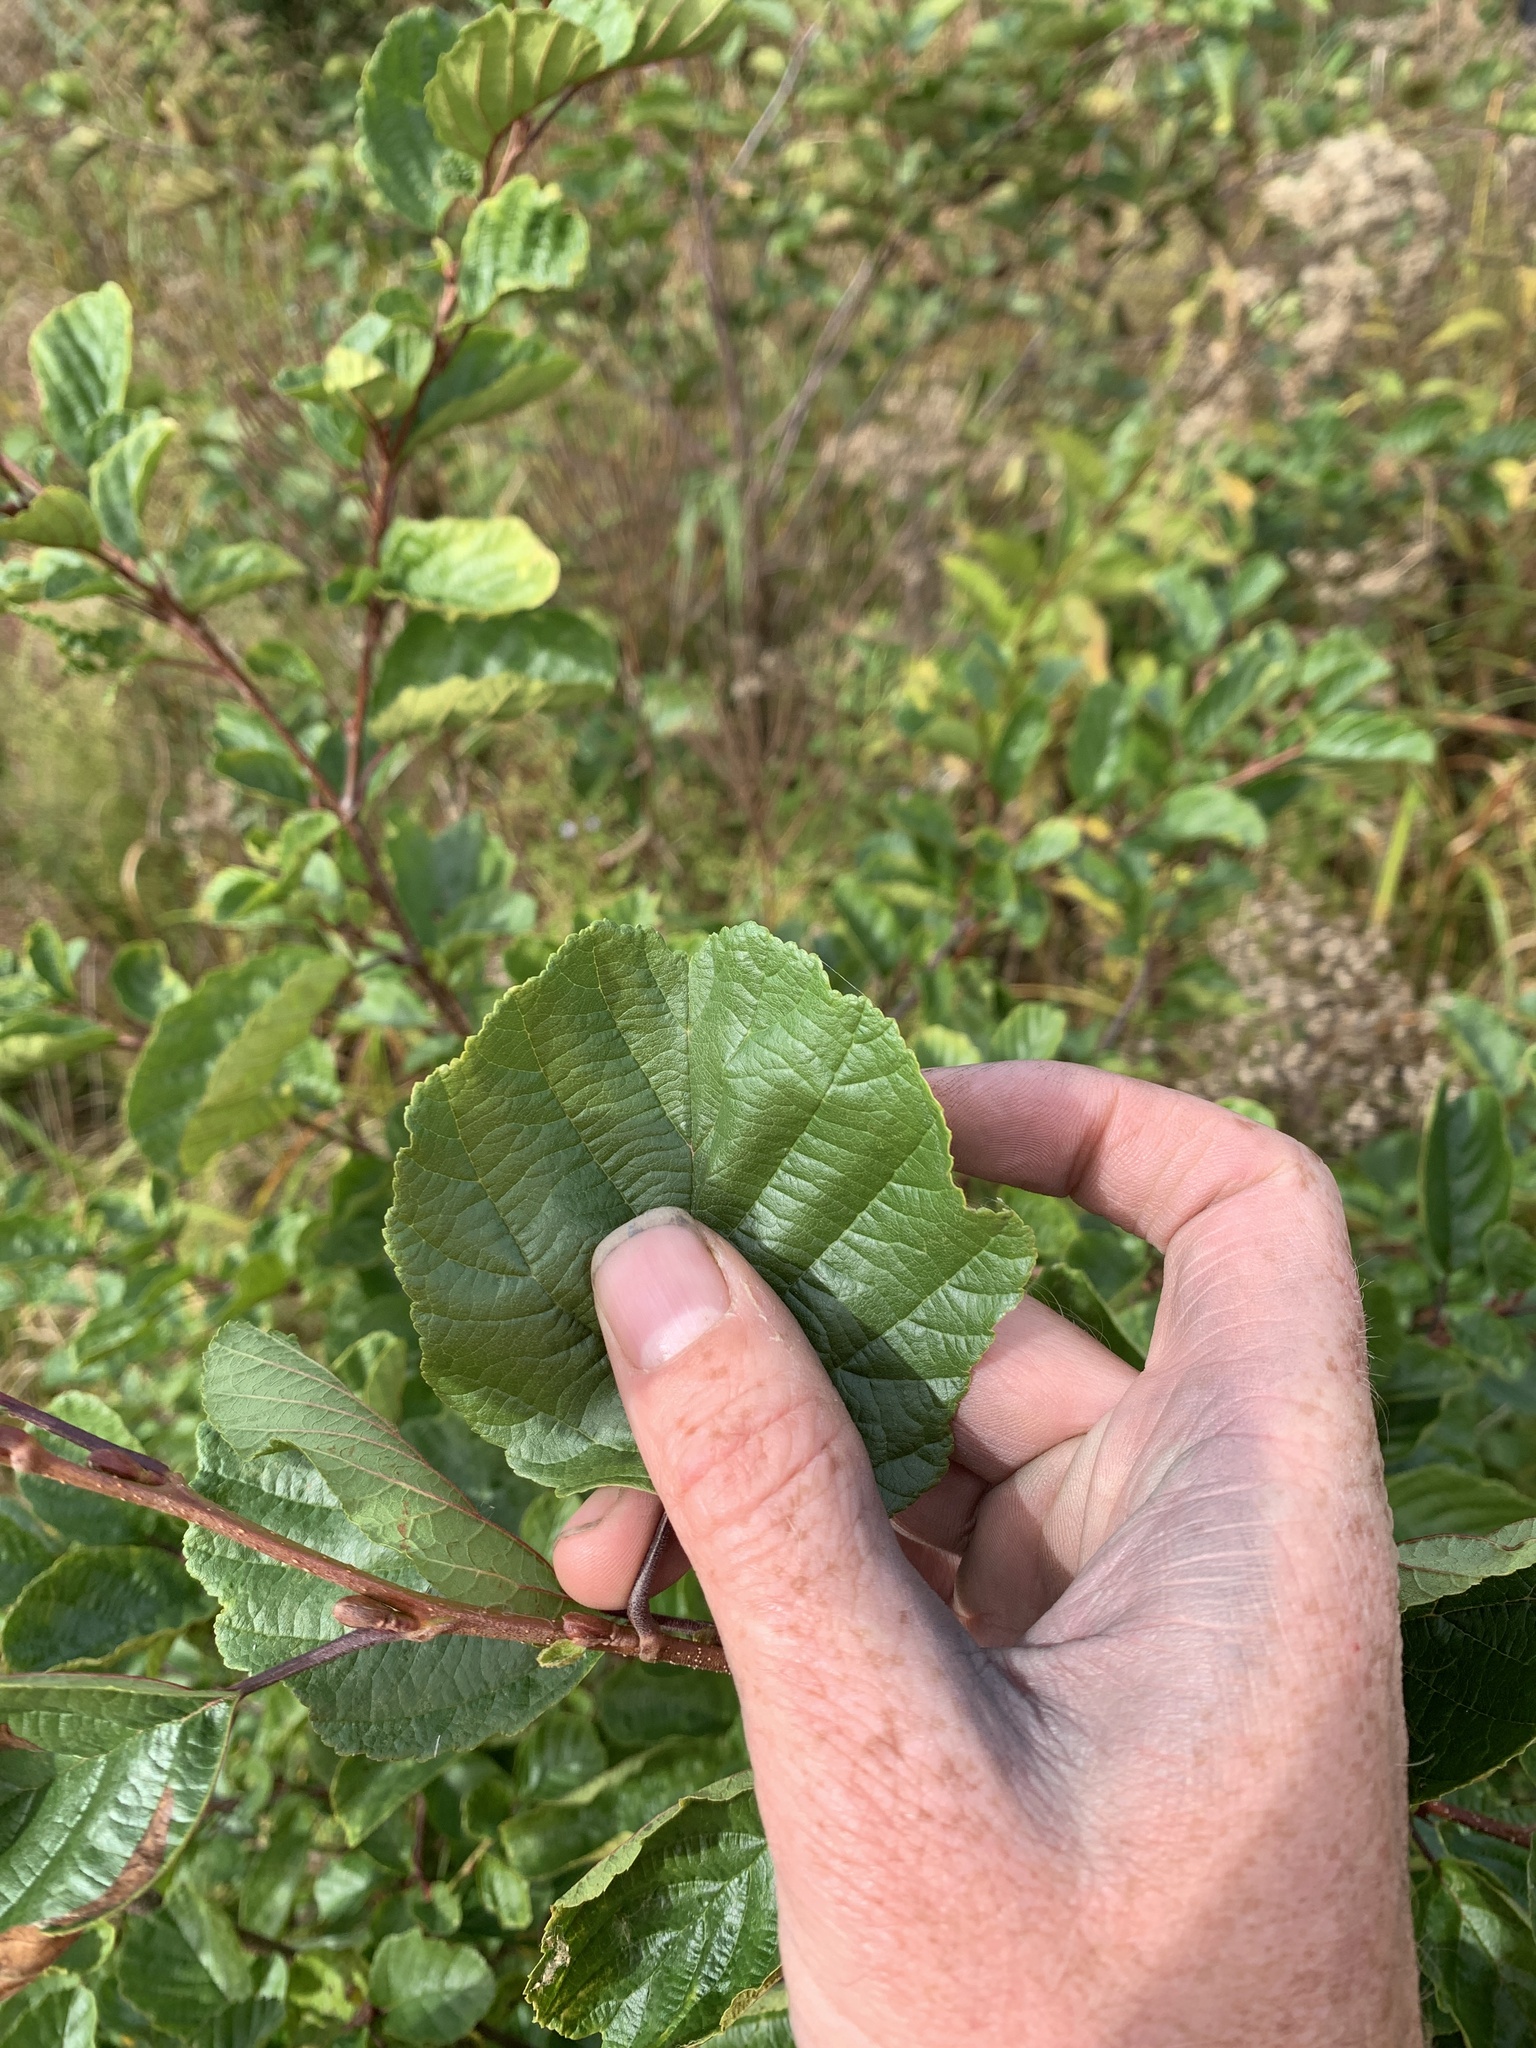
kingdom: Plantae
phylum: Tracheophyta
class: Magnoliopsida
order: Fagales
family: Betulaceae
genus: Alnus
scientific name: Alnus glutinosa
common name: Black alder
